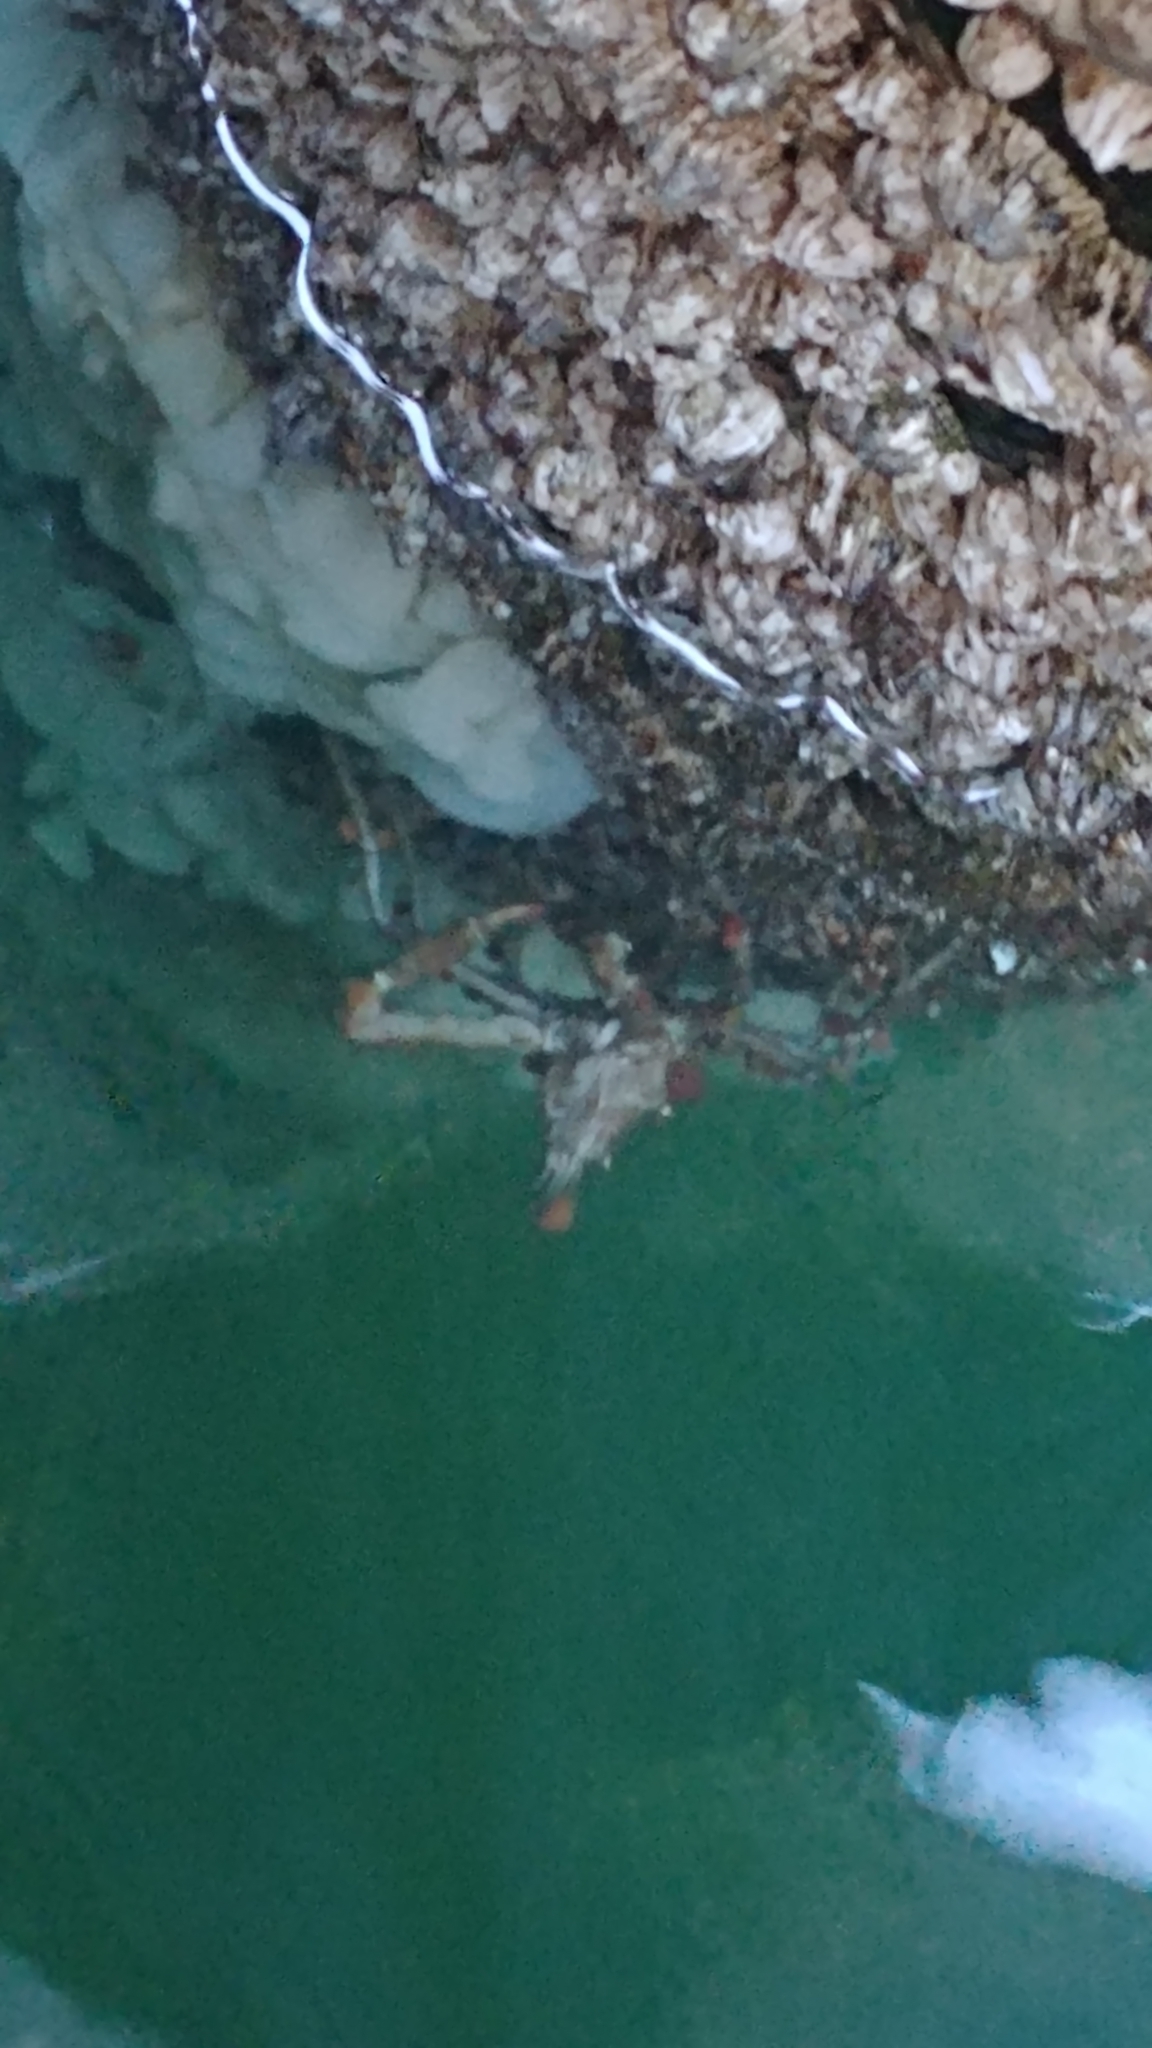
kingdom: Animalia
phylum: Arthropoda
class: Malacostraca
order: Decapoda
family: Oregoniidae
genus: Oregonia
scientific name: Oregonia gracilis
